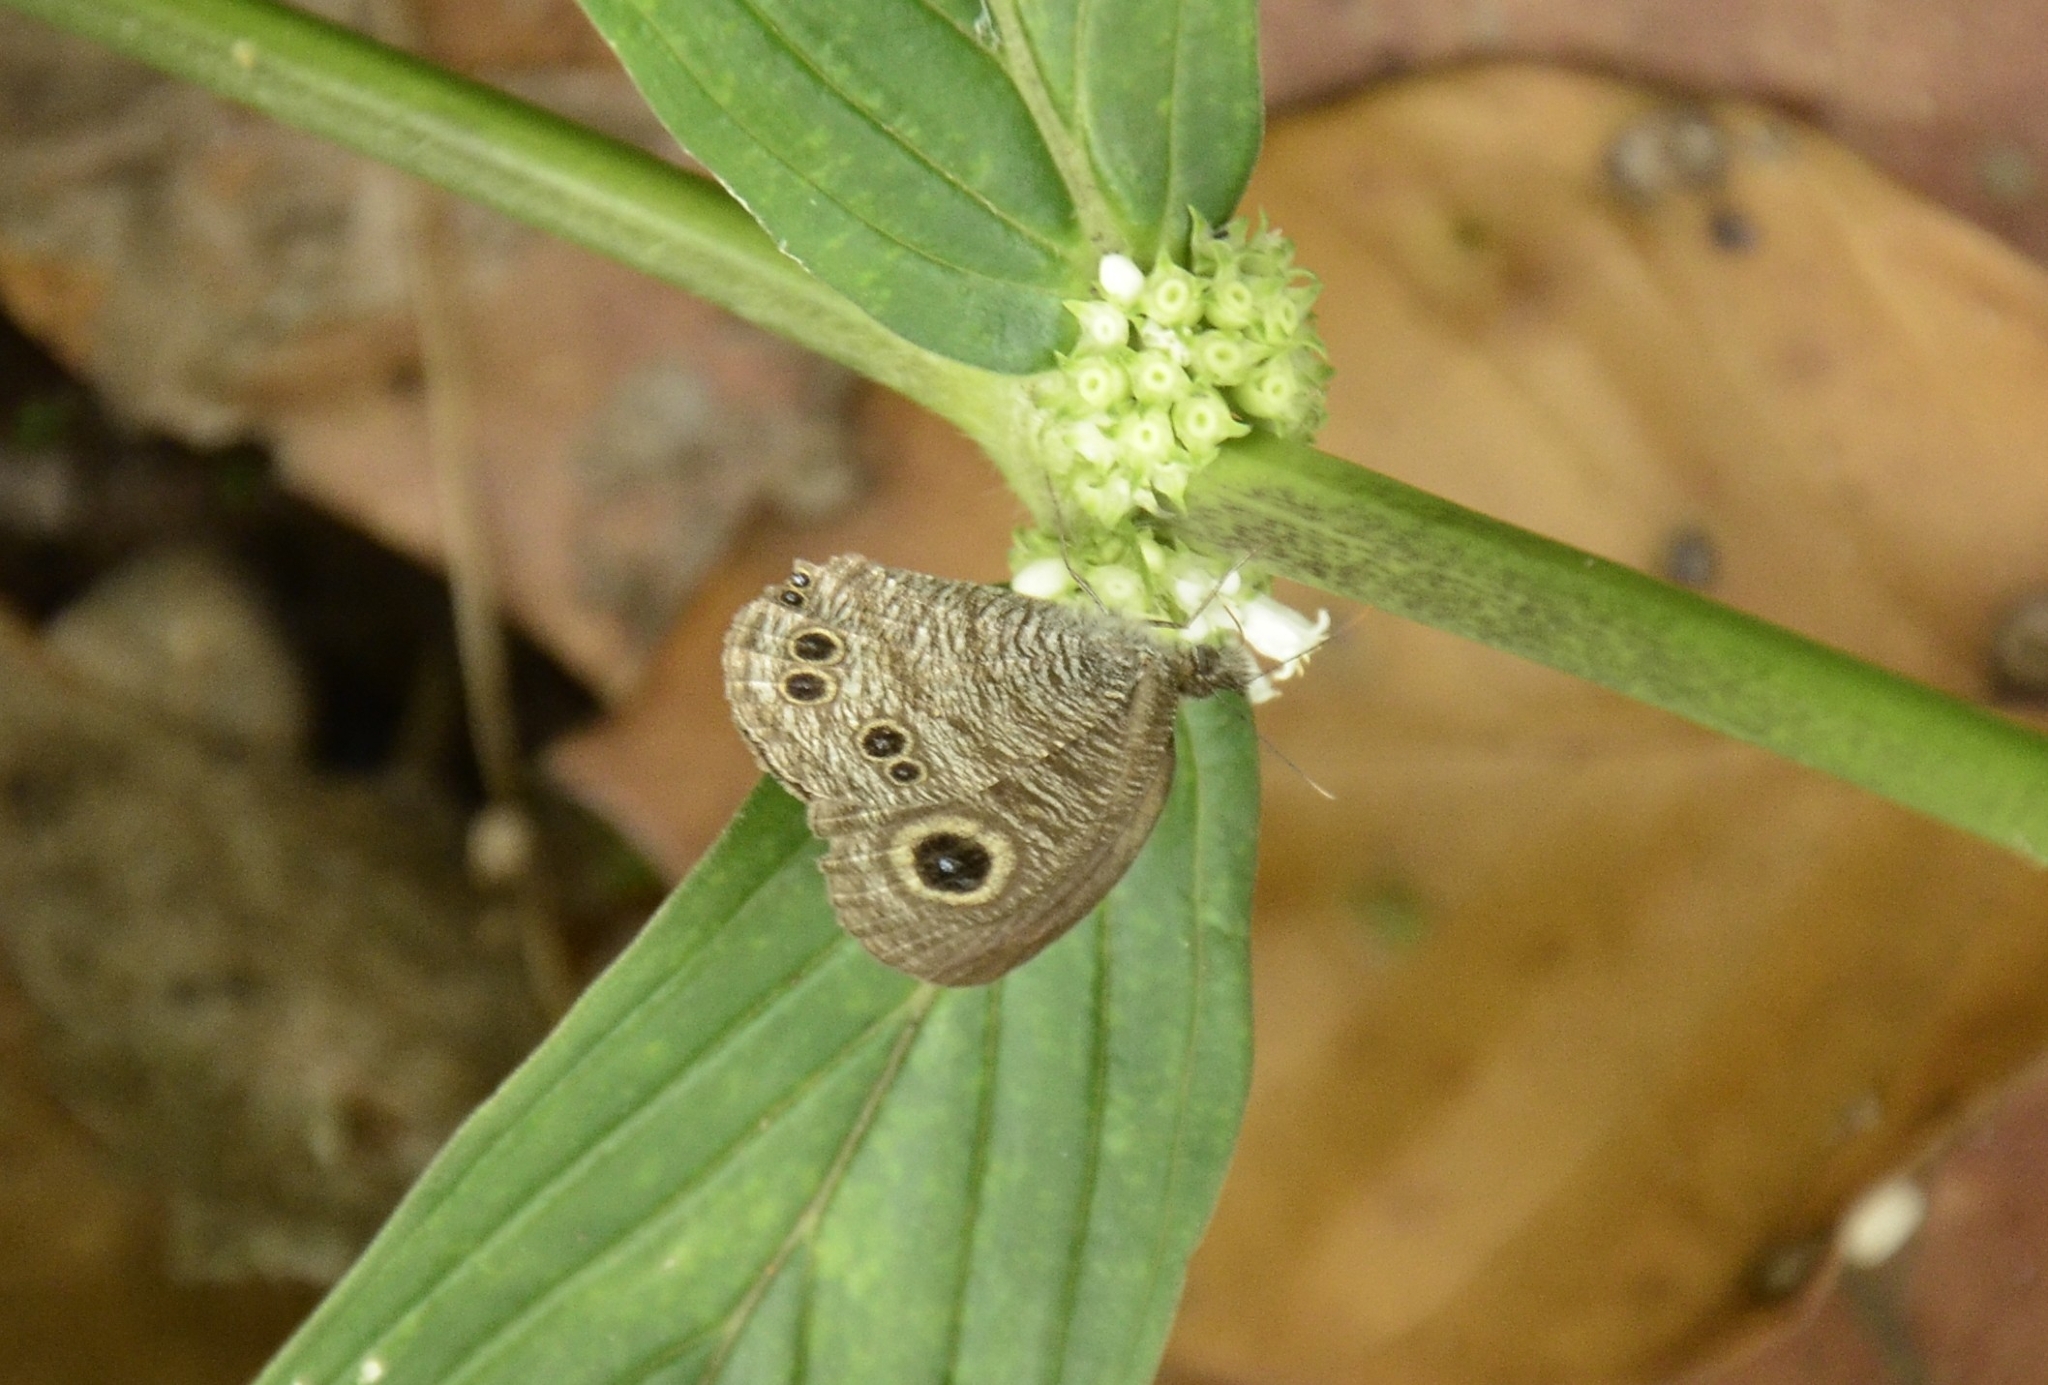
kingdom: Animalia
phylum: Arthropoda
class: Insecta
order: Lepidoptera
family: Nymphalidae
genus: Ypthima
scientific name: Ypthima baldus
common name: Common five-ring
